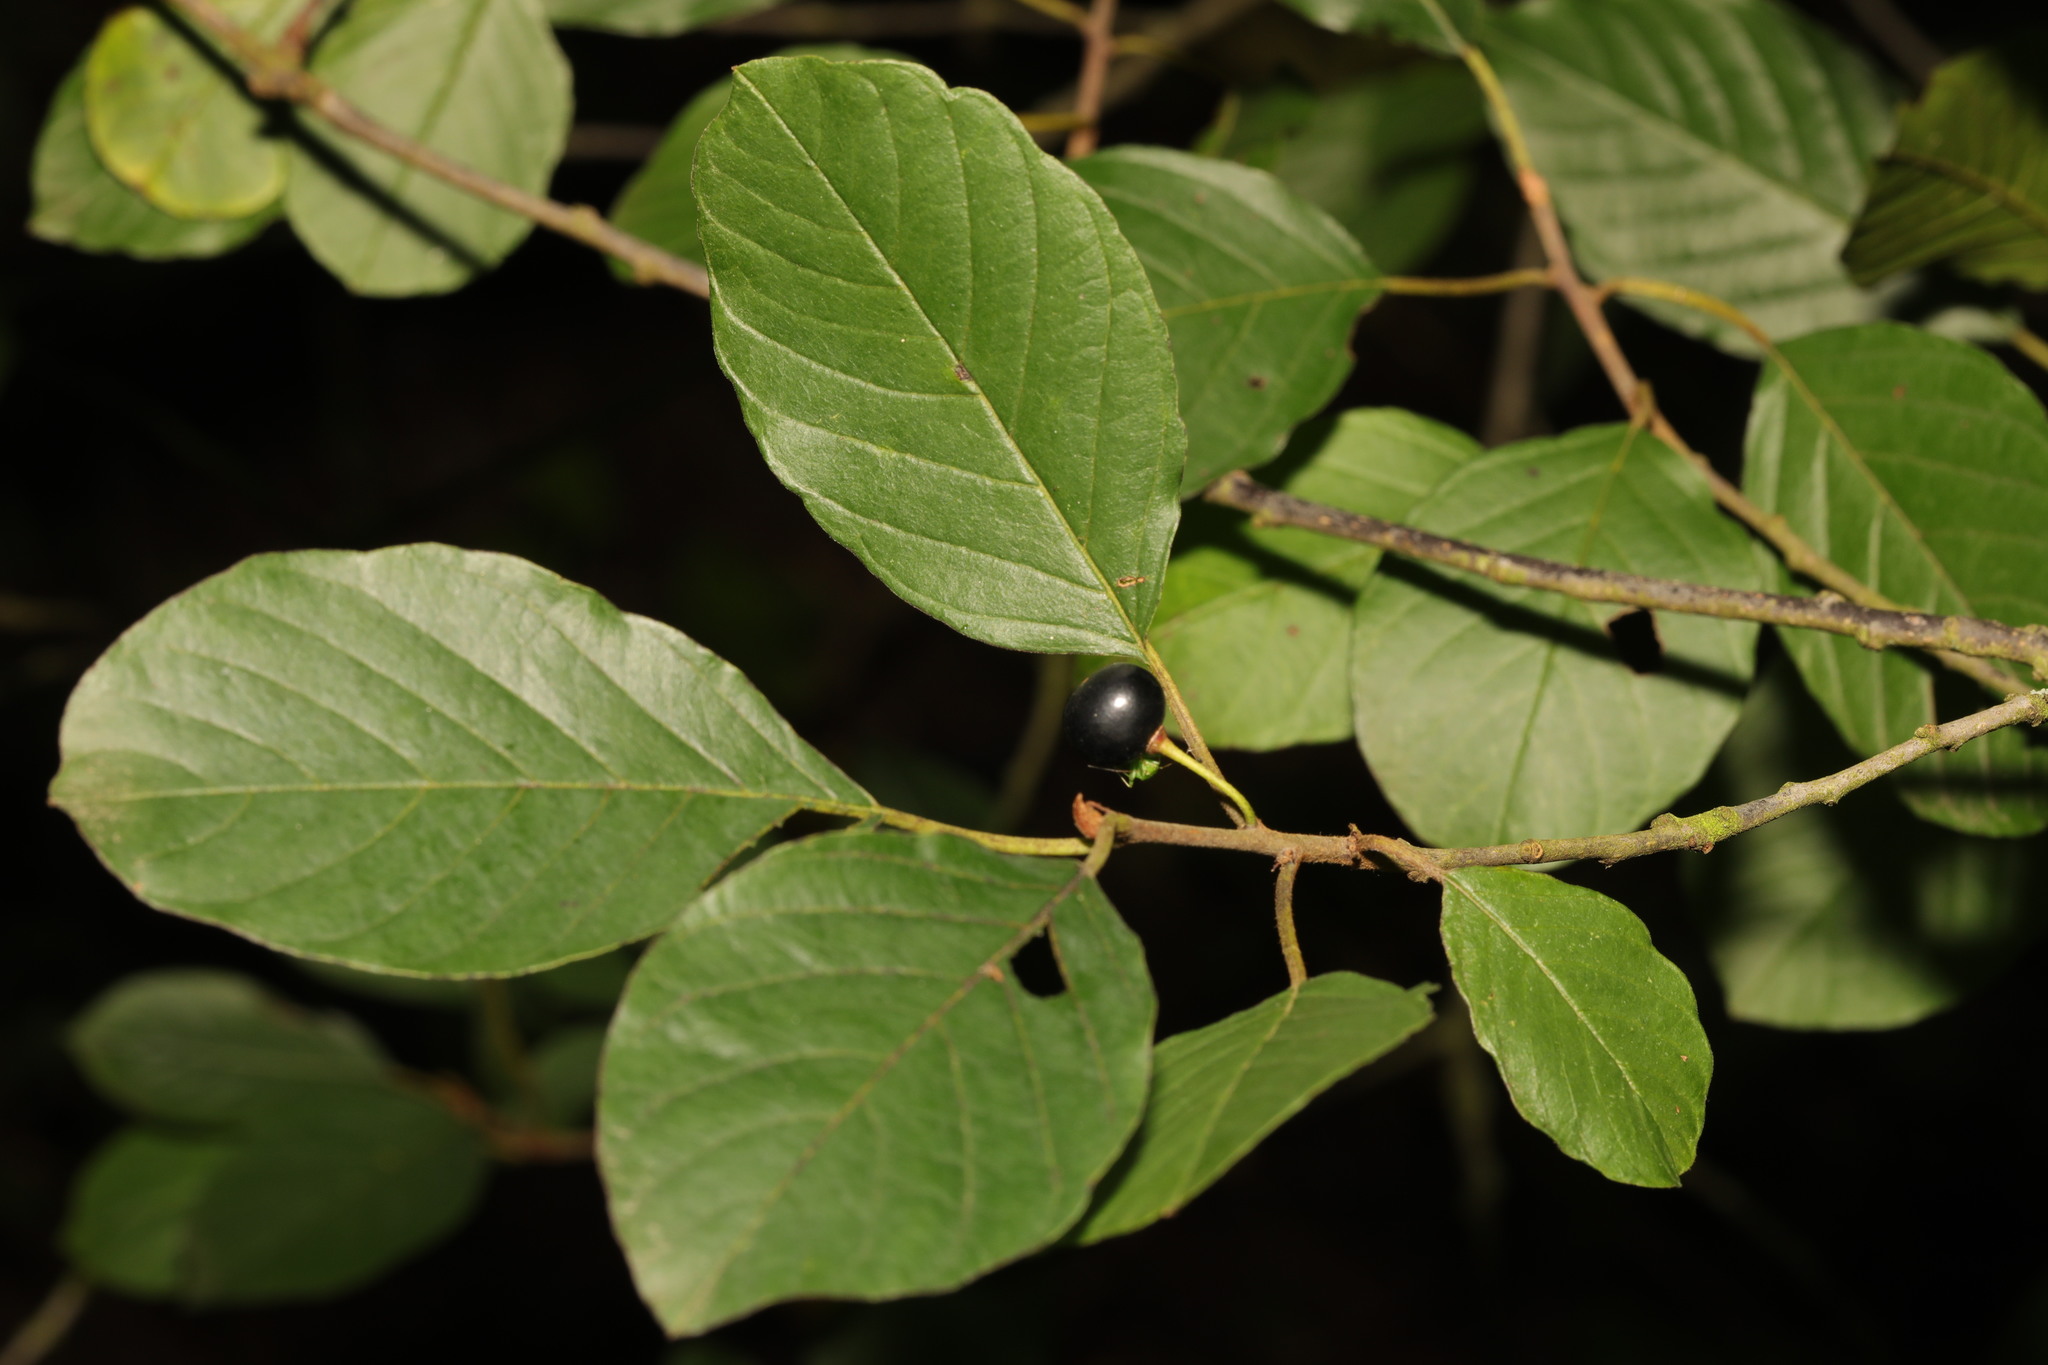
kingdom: Plantae
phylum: Tracheophyta
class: Magnoliopsida
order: Rosales
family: Rhamnaceae
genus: Frangula
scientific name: Frangula alnus
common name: Alder buckthorn
